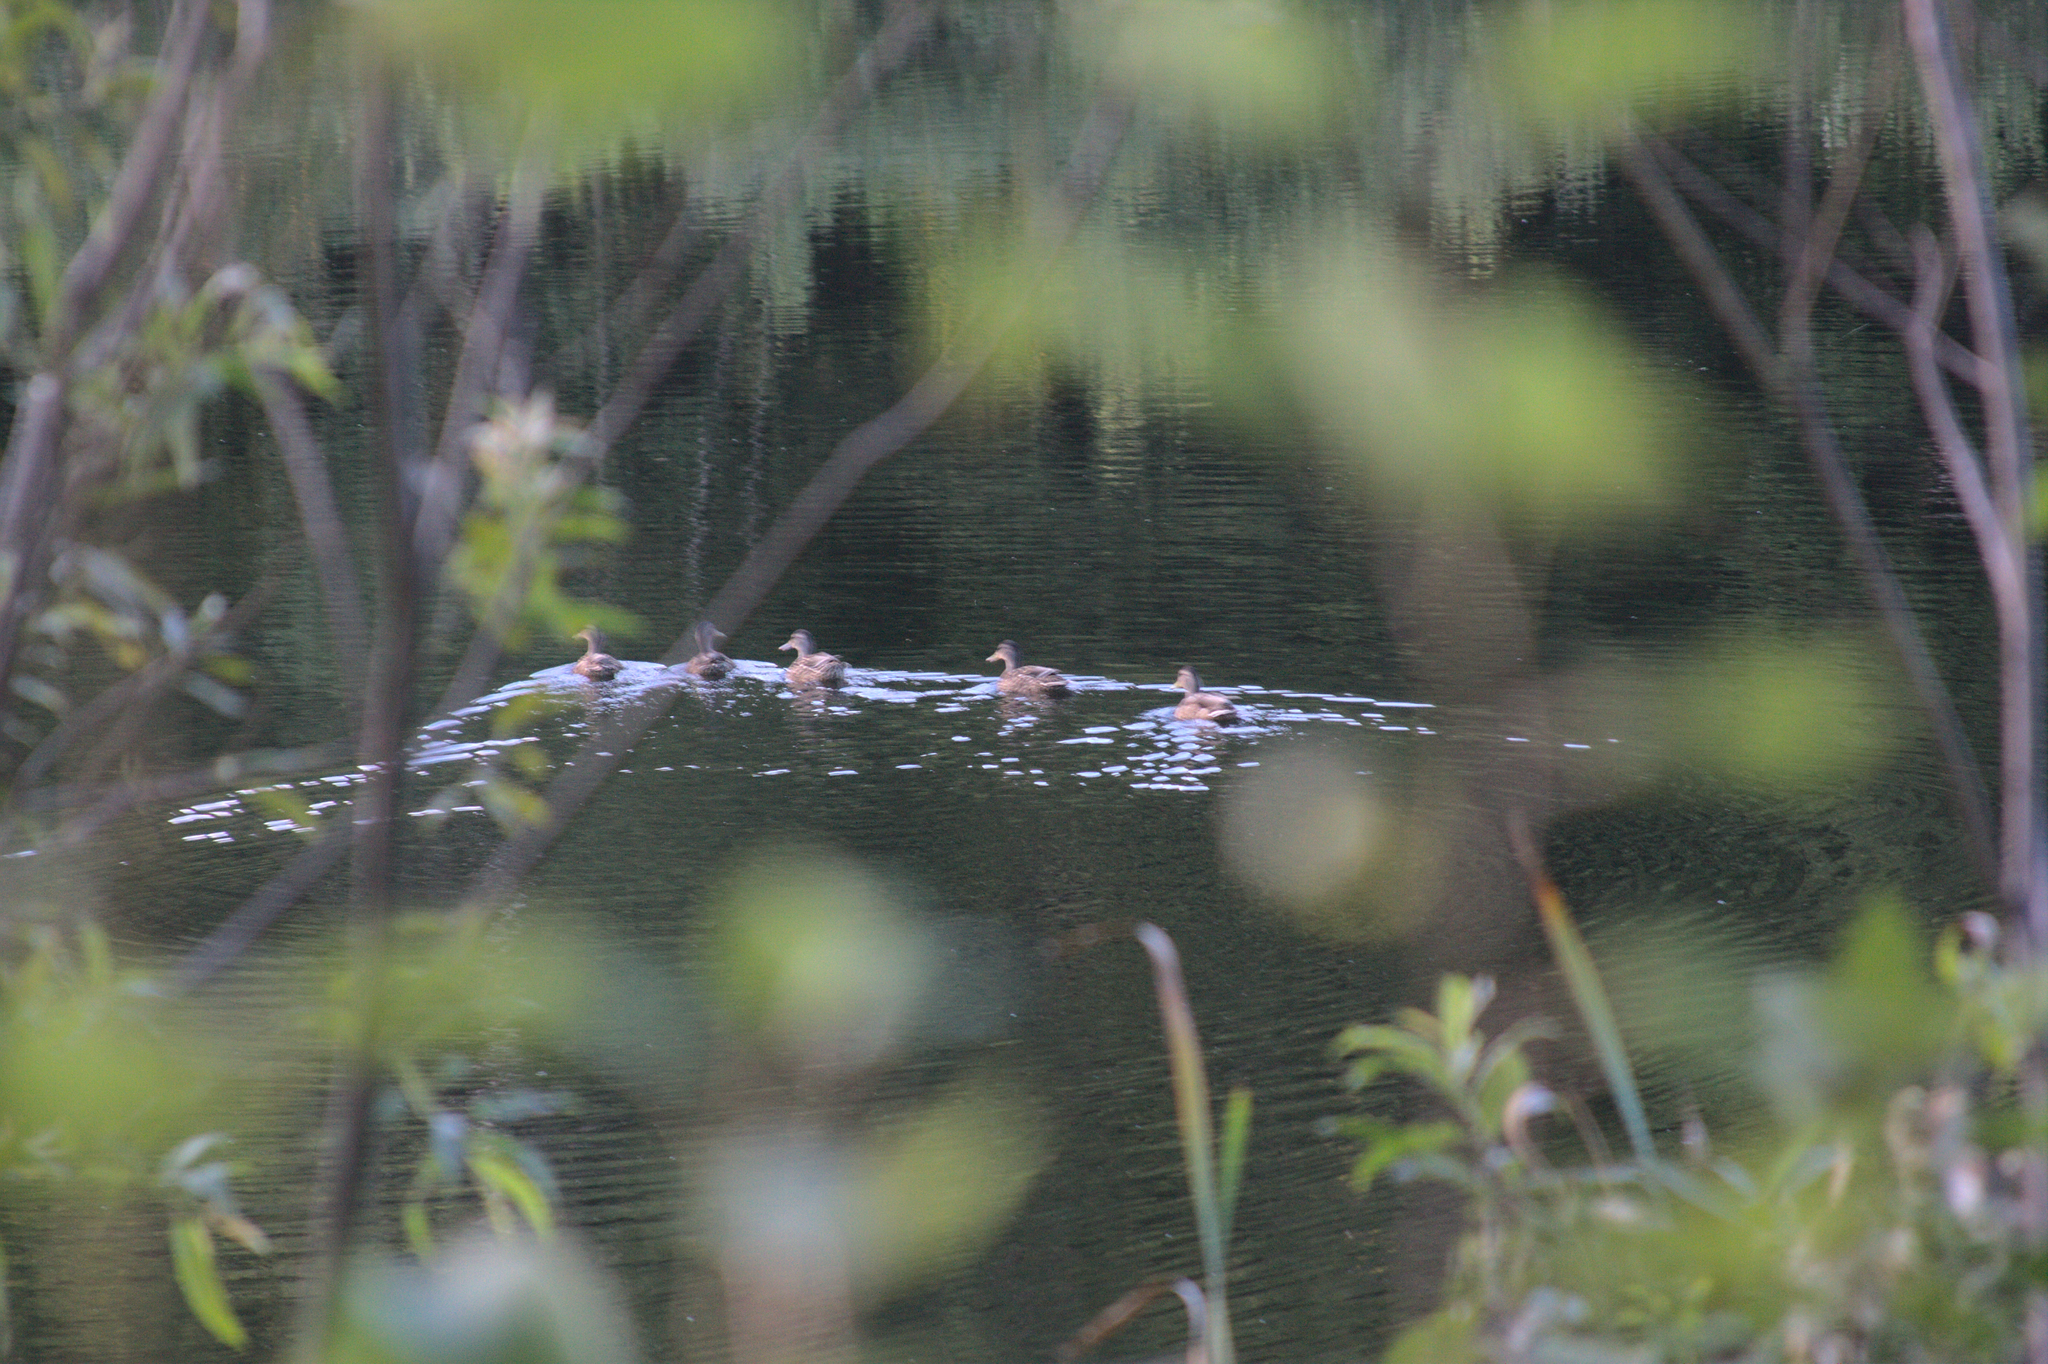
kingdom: Animalia
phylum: Chordata
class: Aves
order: Anseriformes
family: Anatidae
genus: Anas
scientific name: Anas platyrhynchos
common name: Mallard
